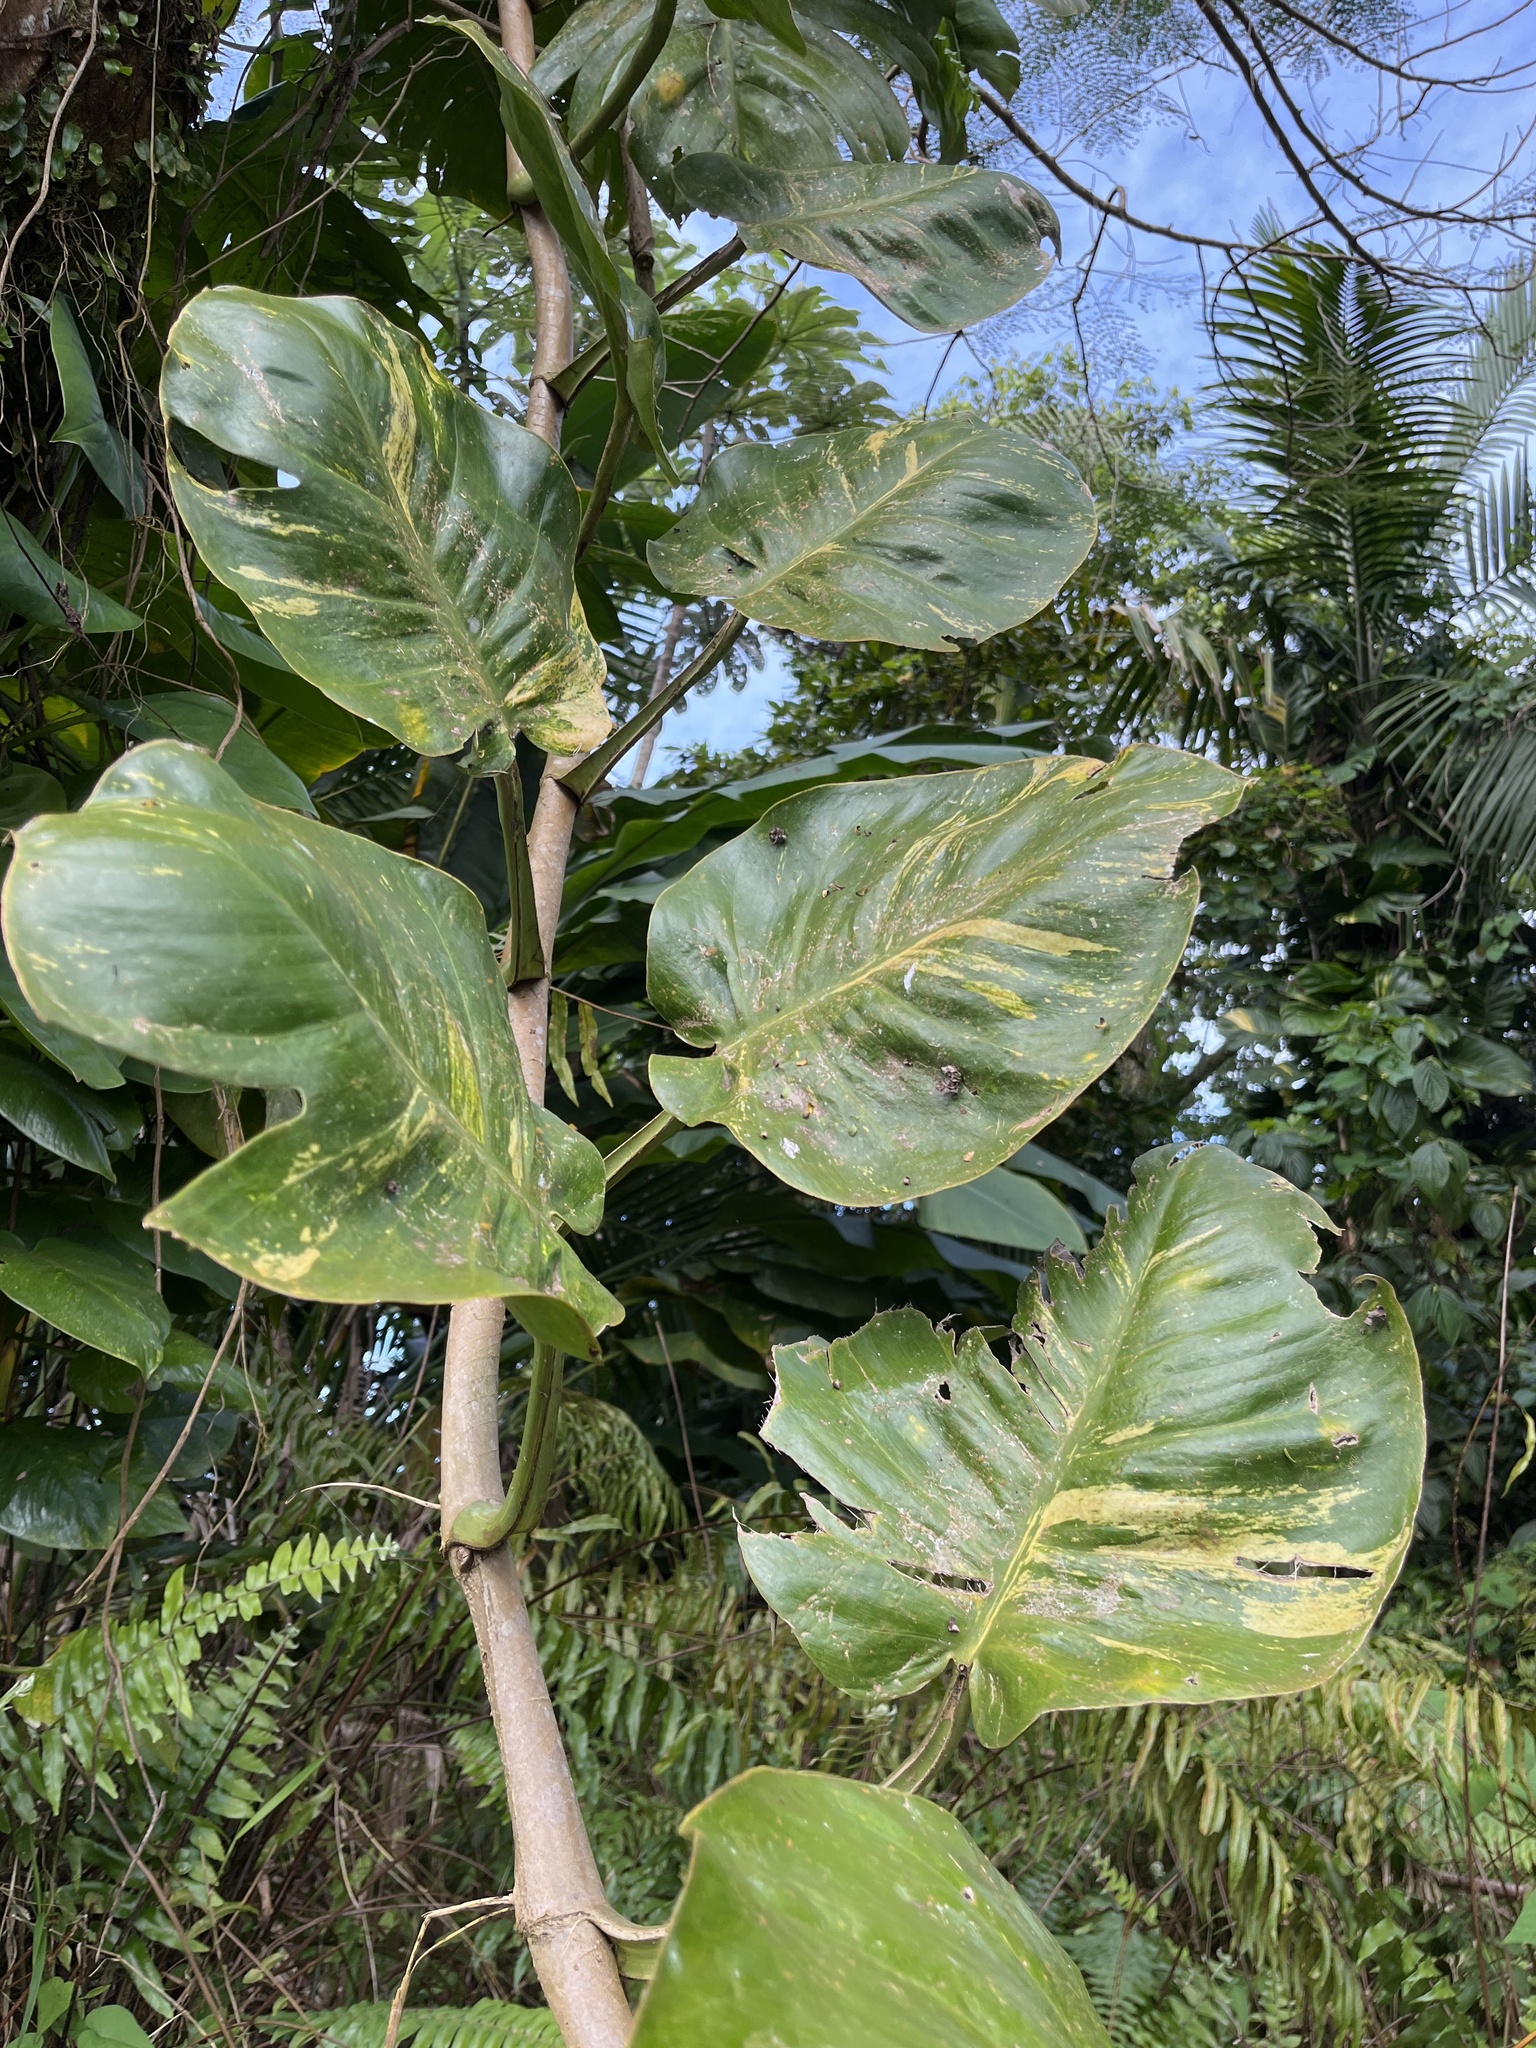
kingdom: Plantae
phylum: Tracheophyta
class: Liliopsida
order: Alismatales
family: Araceae
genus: Epipremnum
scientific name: Epipremnum aureum
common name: Golden hunter's-robe
